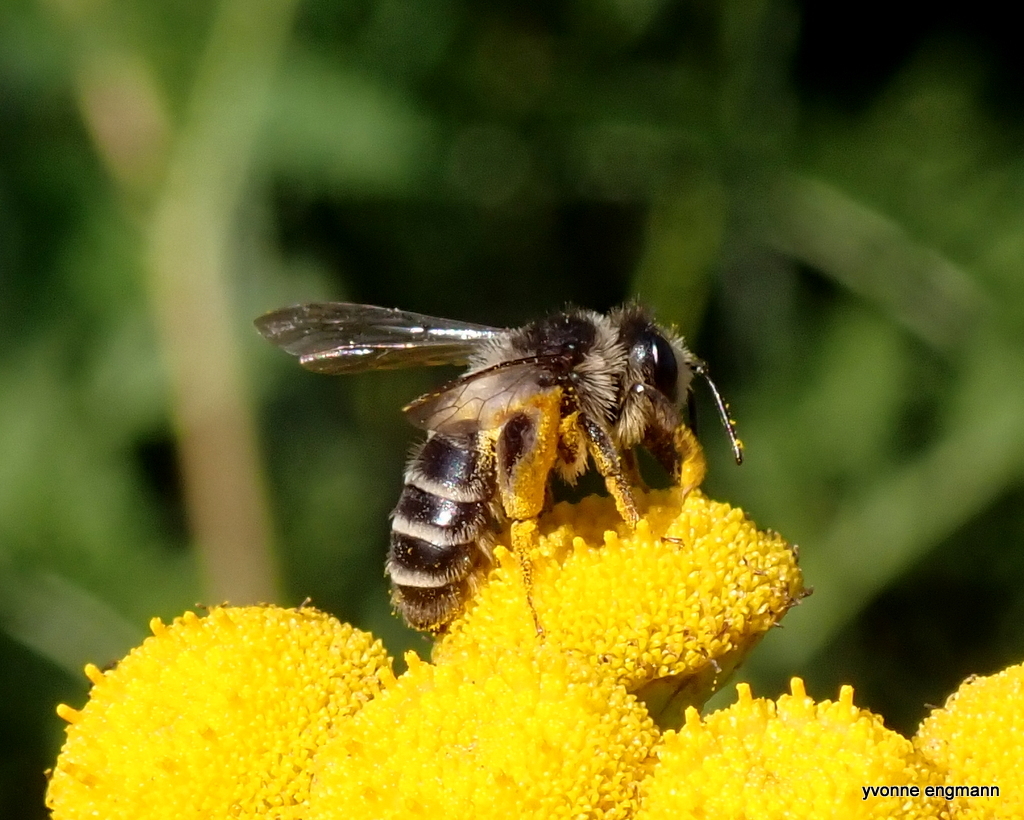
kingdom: Animalia
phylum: Arthropoda
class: Insecta
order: Hymenoptera
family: Andrenidae
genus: Andrena
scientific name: Andrena denticulata
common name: Grey-banded mining bee
